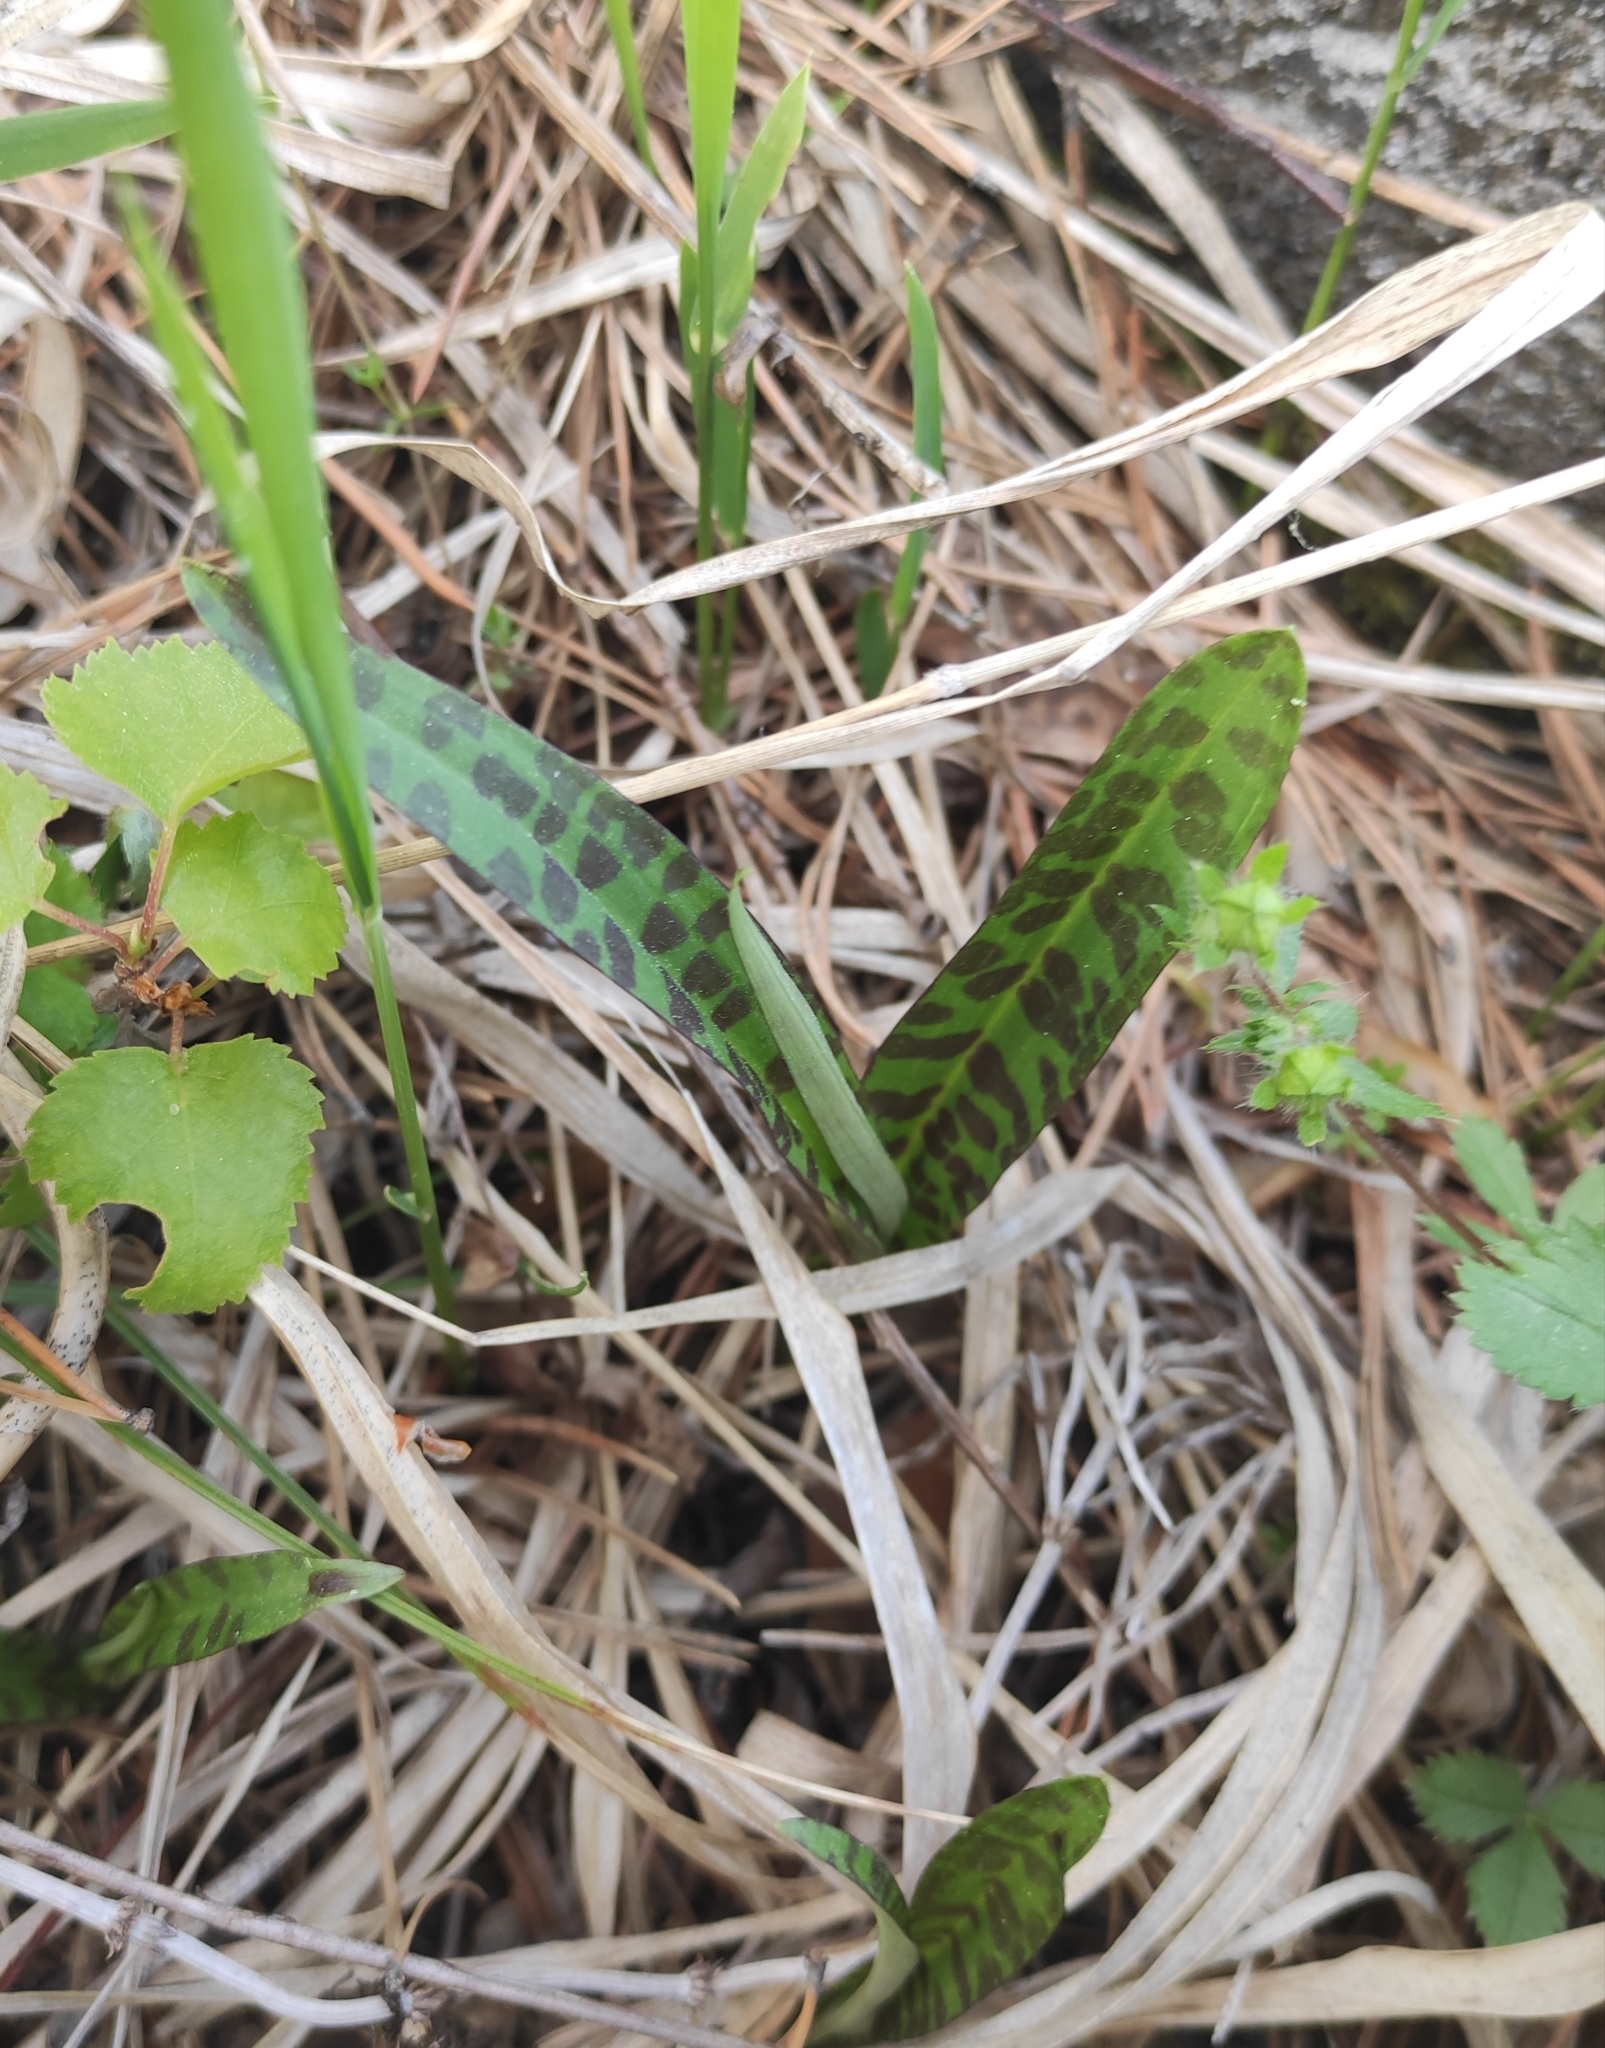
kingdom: Plantae
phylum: Tracheophyta
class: Liliopsida
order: Asparagales
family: Orchidaceae
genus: Dactylorhiza
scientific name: Dactylorhiza maculata
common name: Heath spotted-orchid
